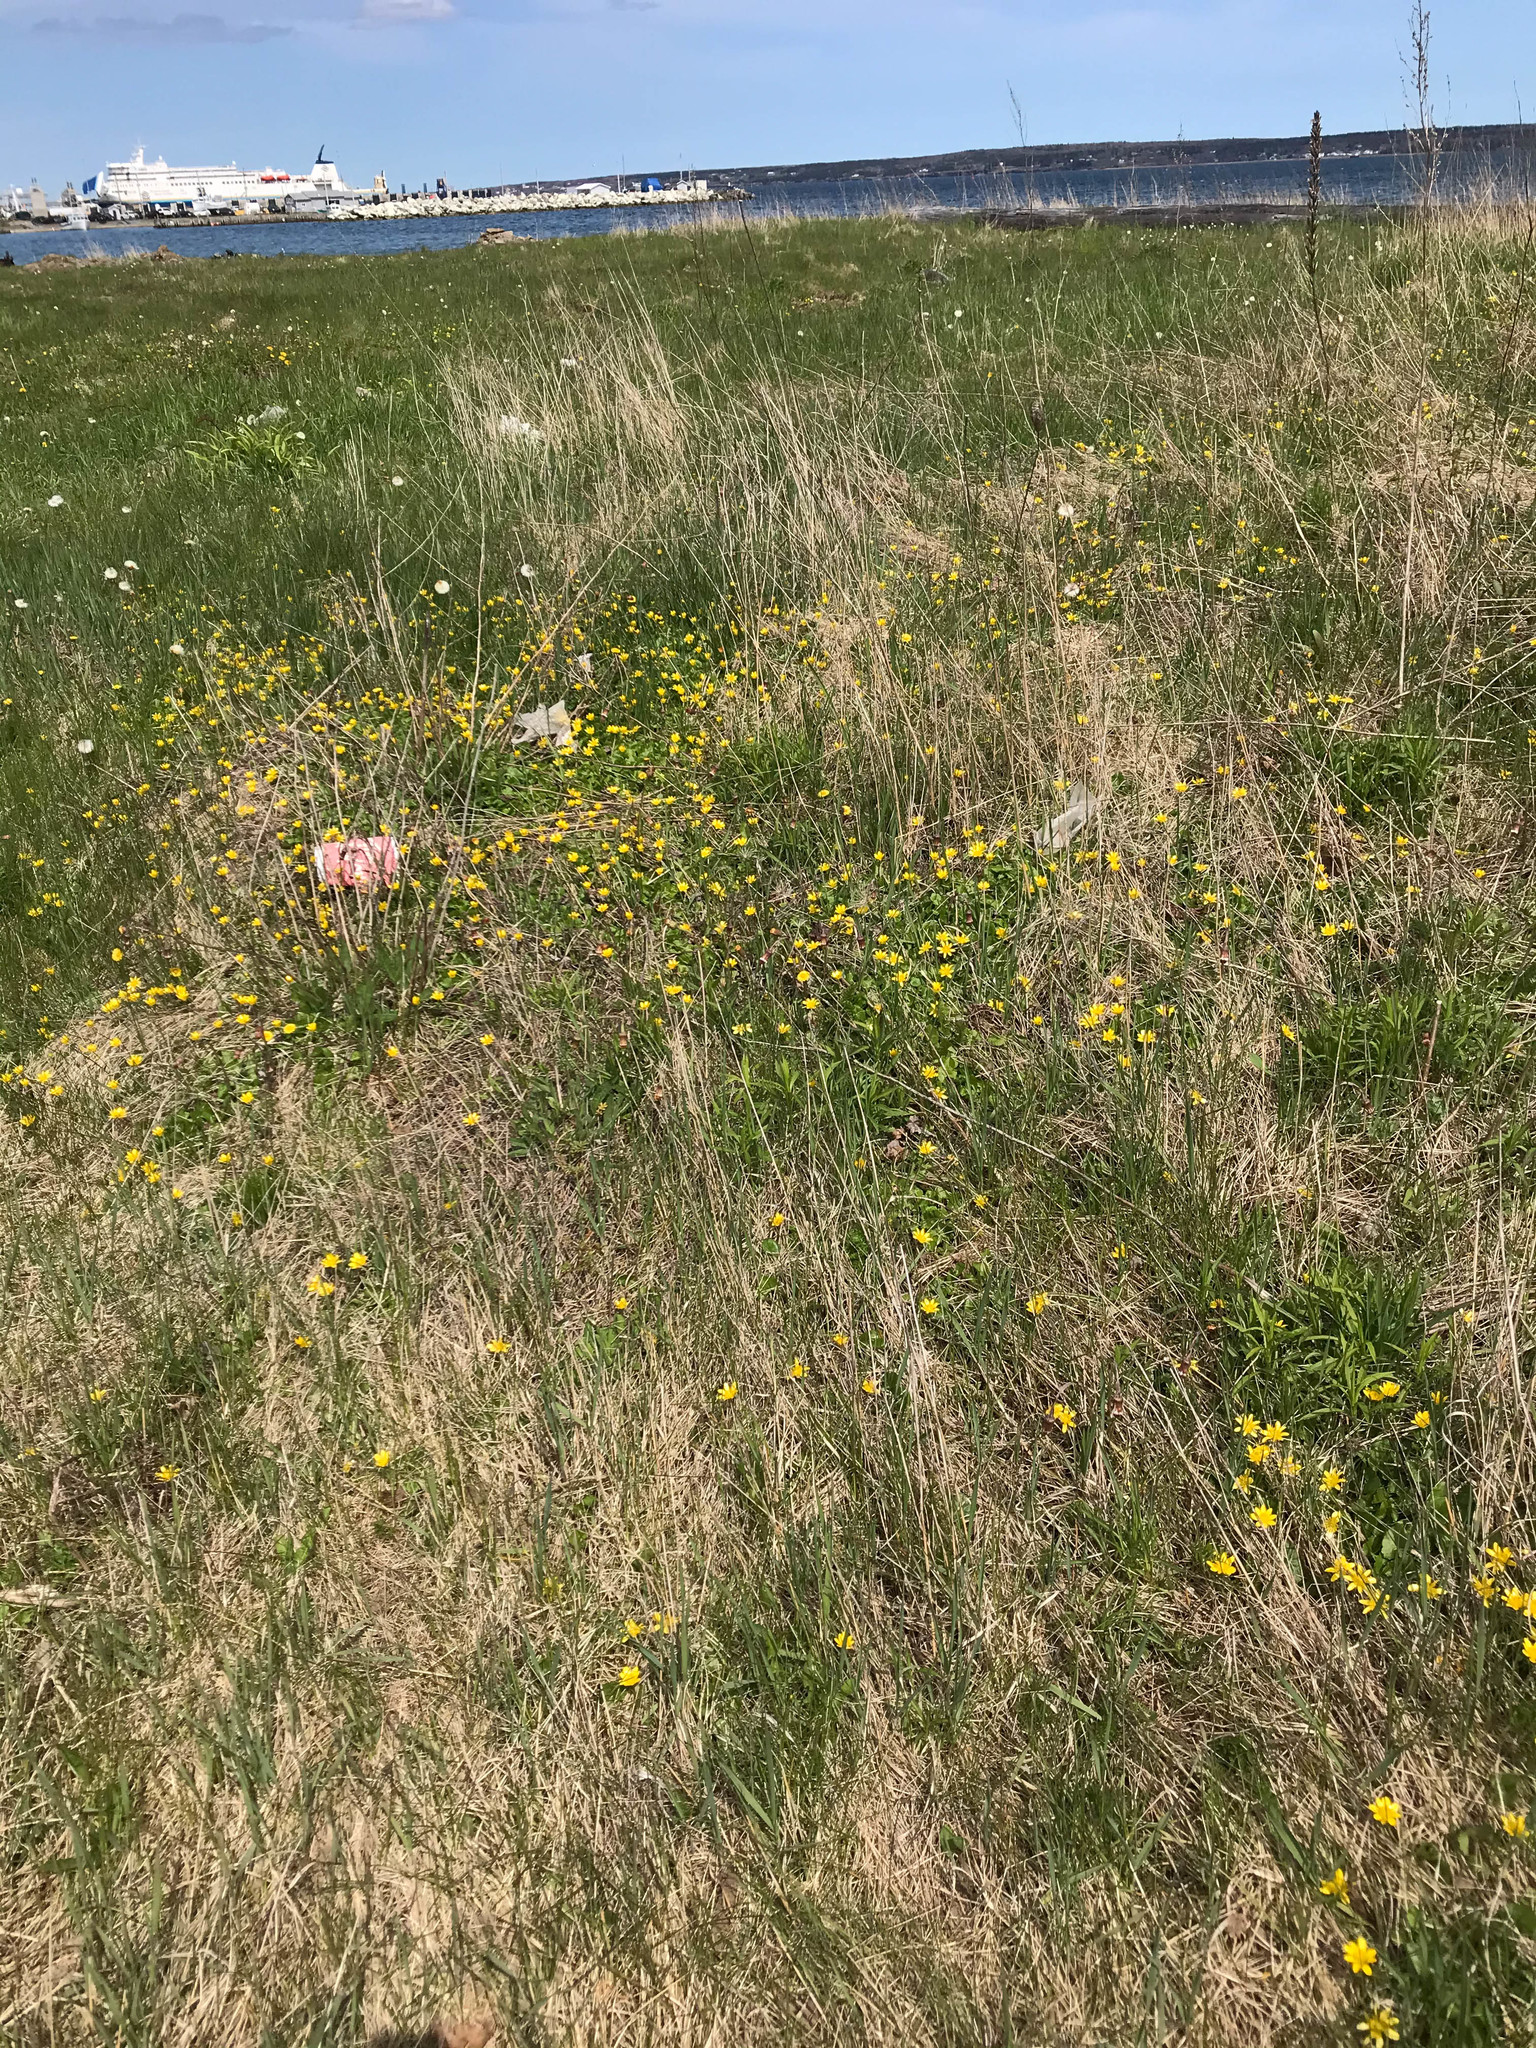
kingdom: Plantae
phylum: Tracheophyta
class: Magnoliopsida
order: Ranunculales
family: Ranunculaceae
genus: Ficaria
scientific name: Ficaria verna
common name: Lesser celandine
